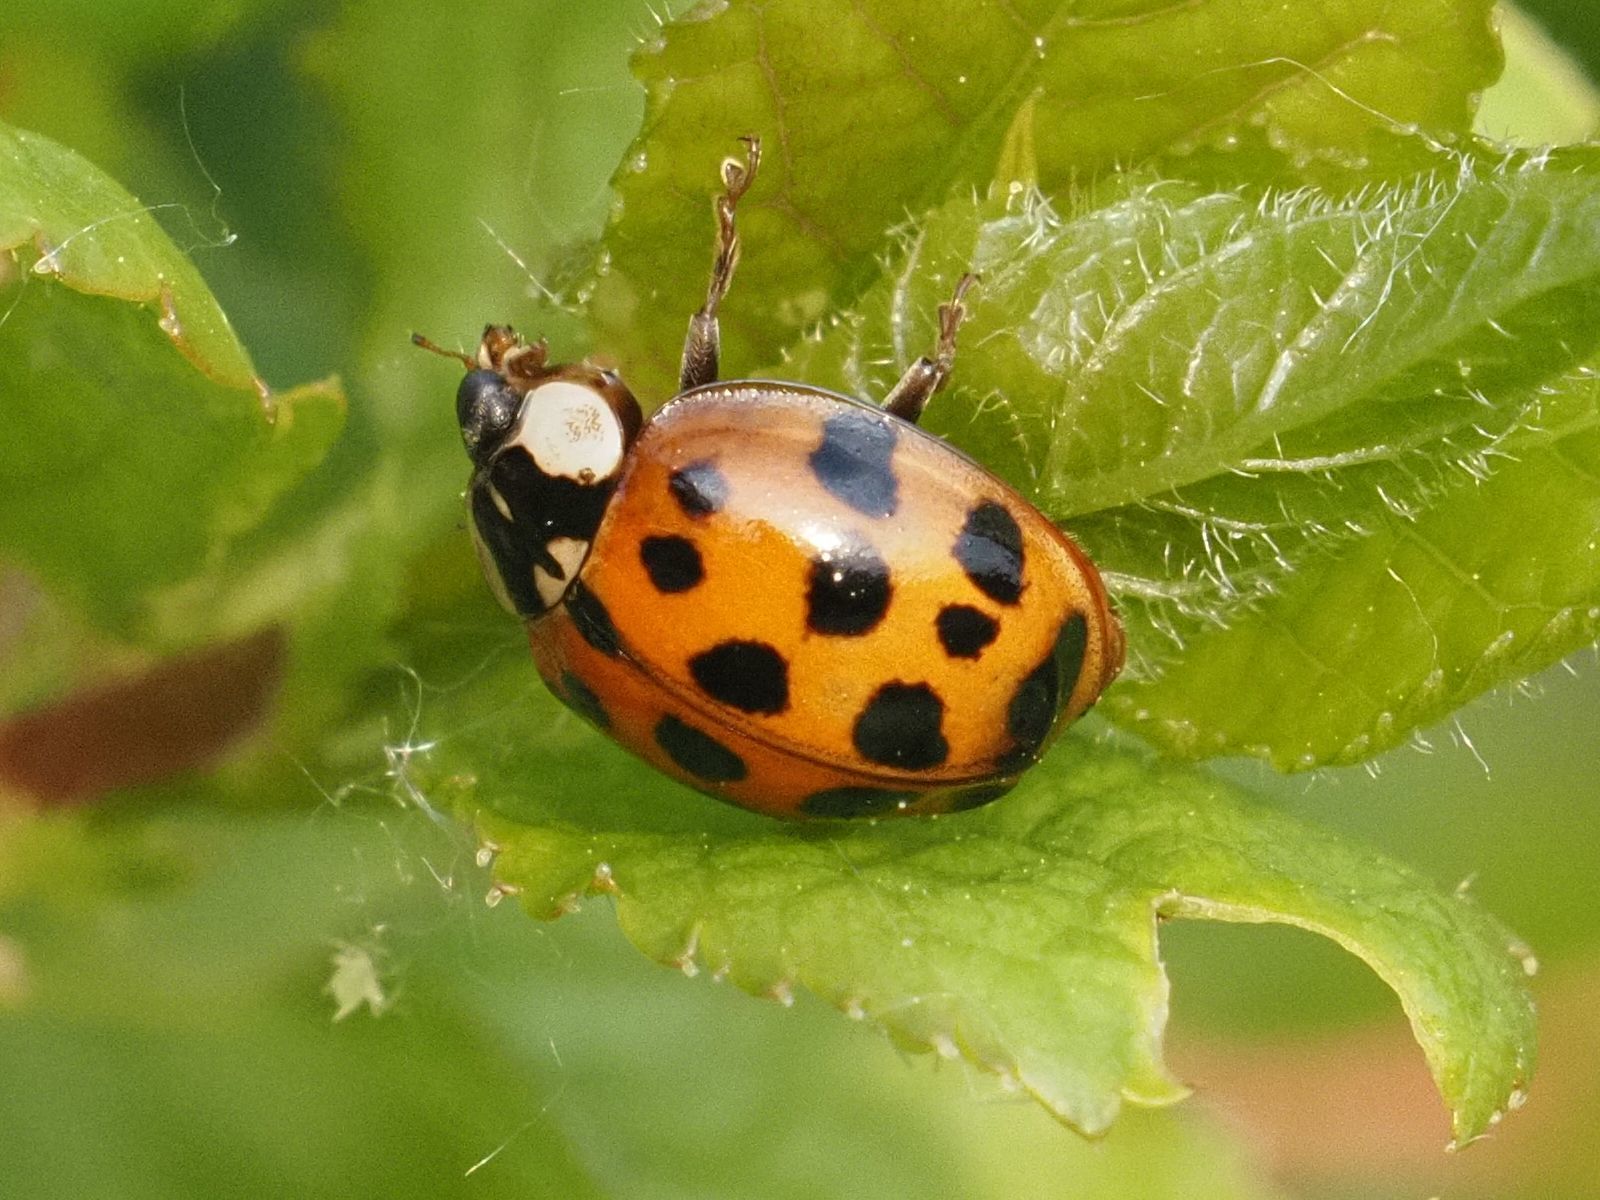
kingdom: Animalia
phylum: Arthropoda
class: Insecta
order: Coleoptera
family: Coccinellidae
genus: Harmonia
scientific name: Harmonia axyridis
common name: Harlequin ladybird
